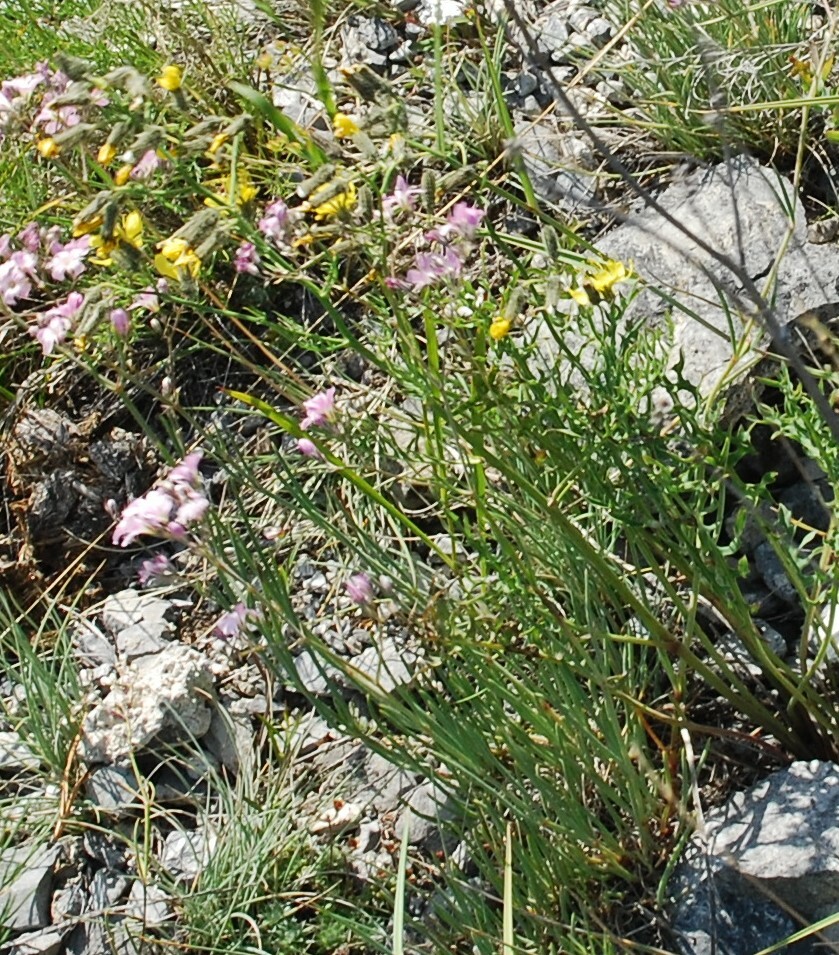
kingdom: Plantae
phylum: Tracheophyta
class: Magnoliopsida
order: Asterales
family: Asteraceae
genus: Crepidiastrum
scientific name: Crepidiastrum tenuifolium
